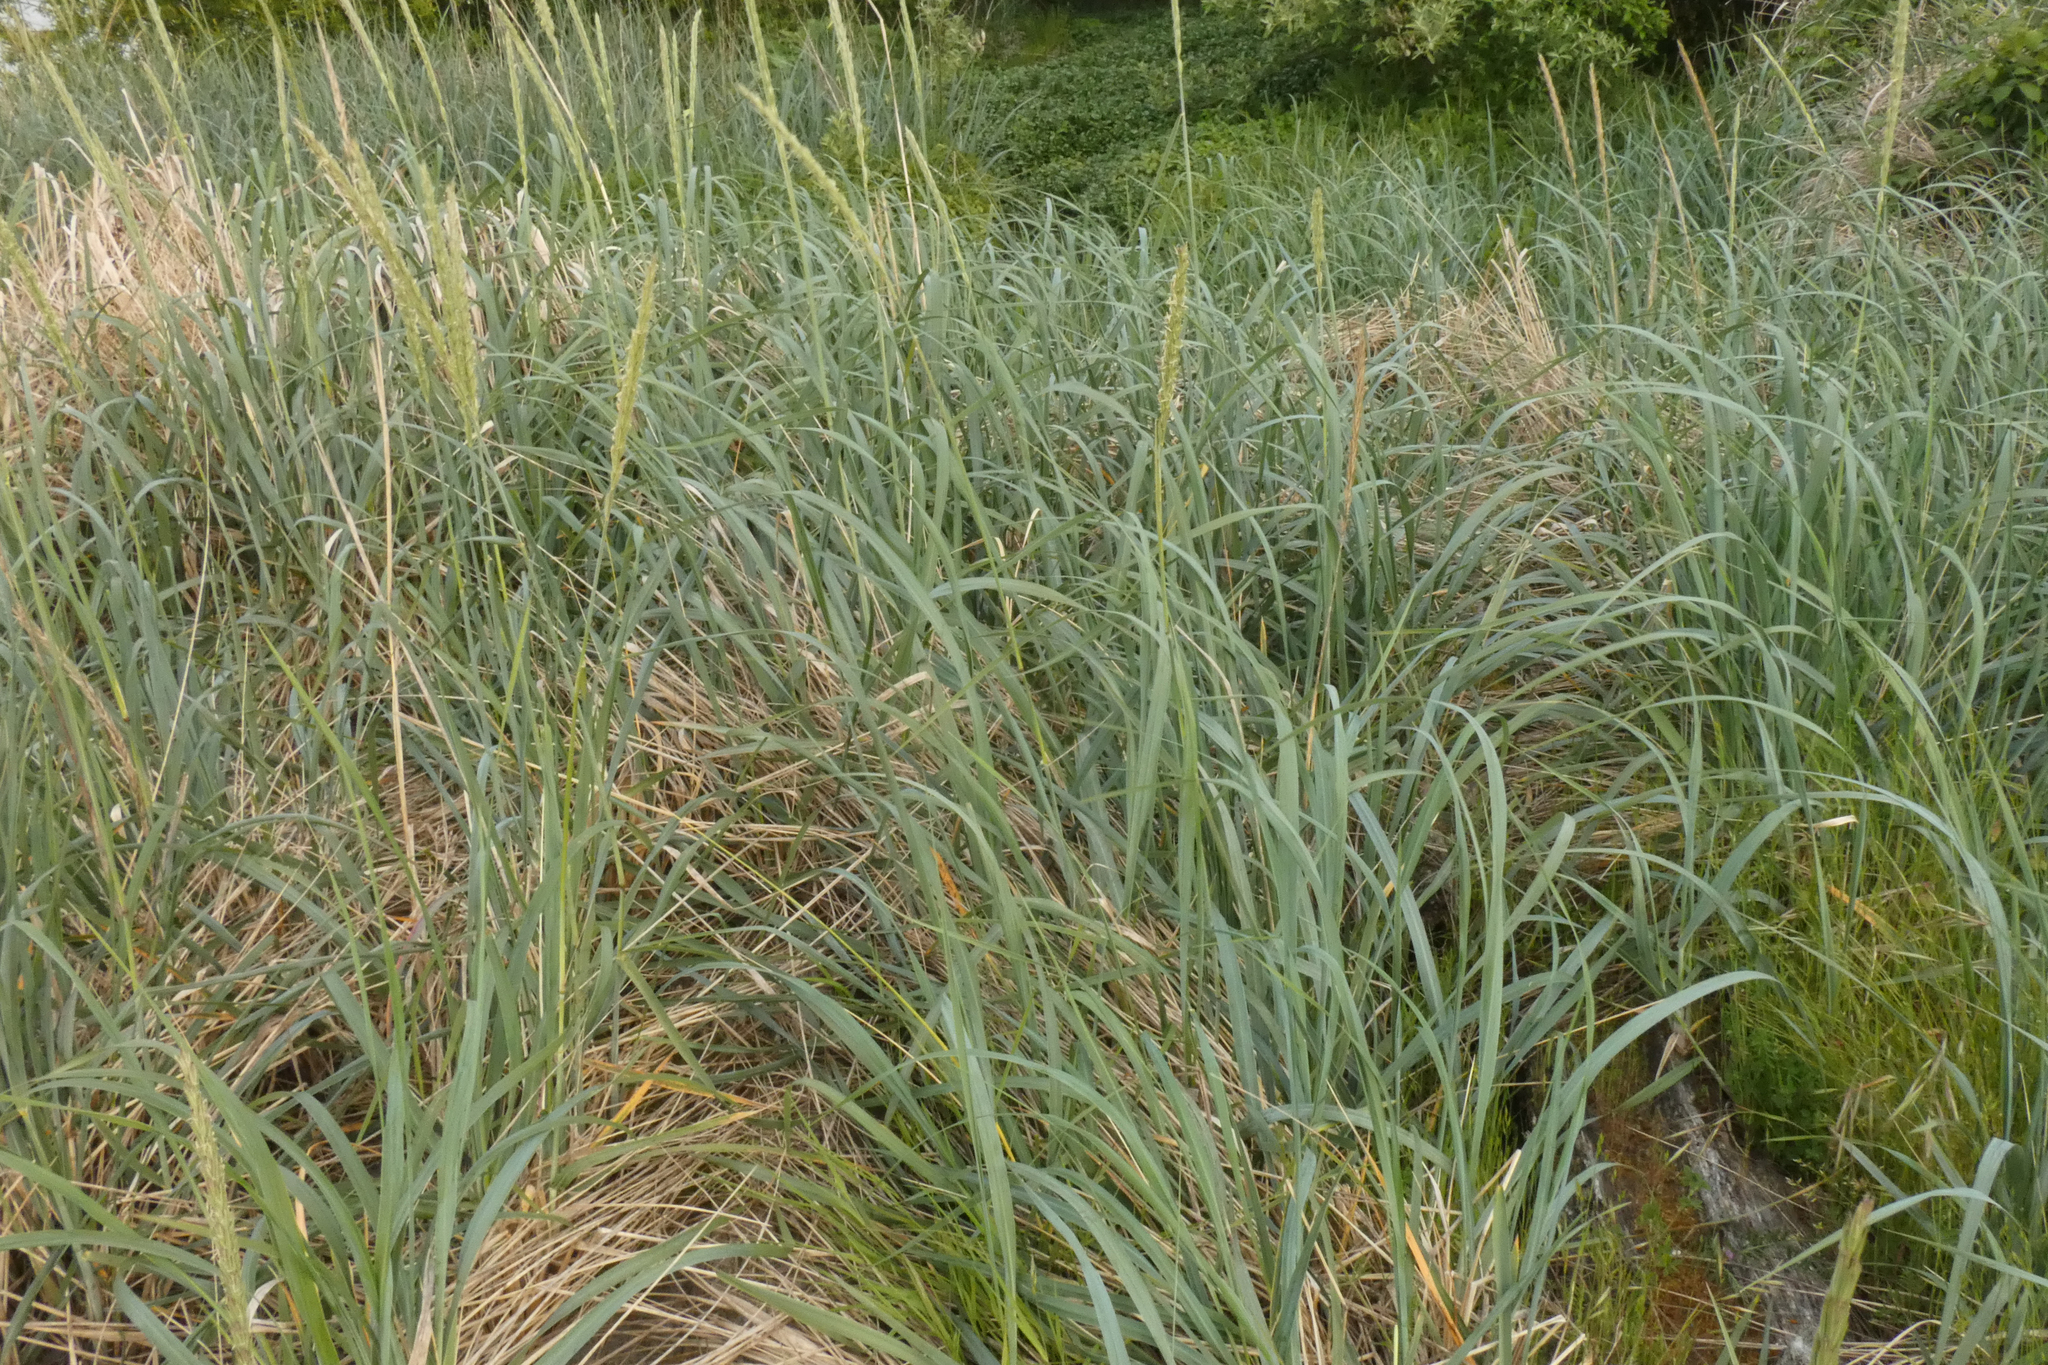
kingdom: Plantae
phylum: Tracheophyta
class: Liliopsida
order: Poales
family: Poaceae
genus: Leymus
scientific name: Leymus mollis
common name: American dune grass
